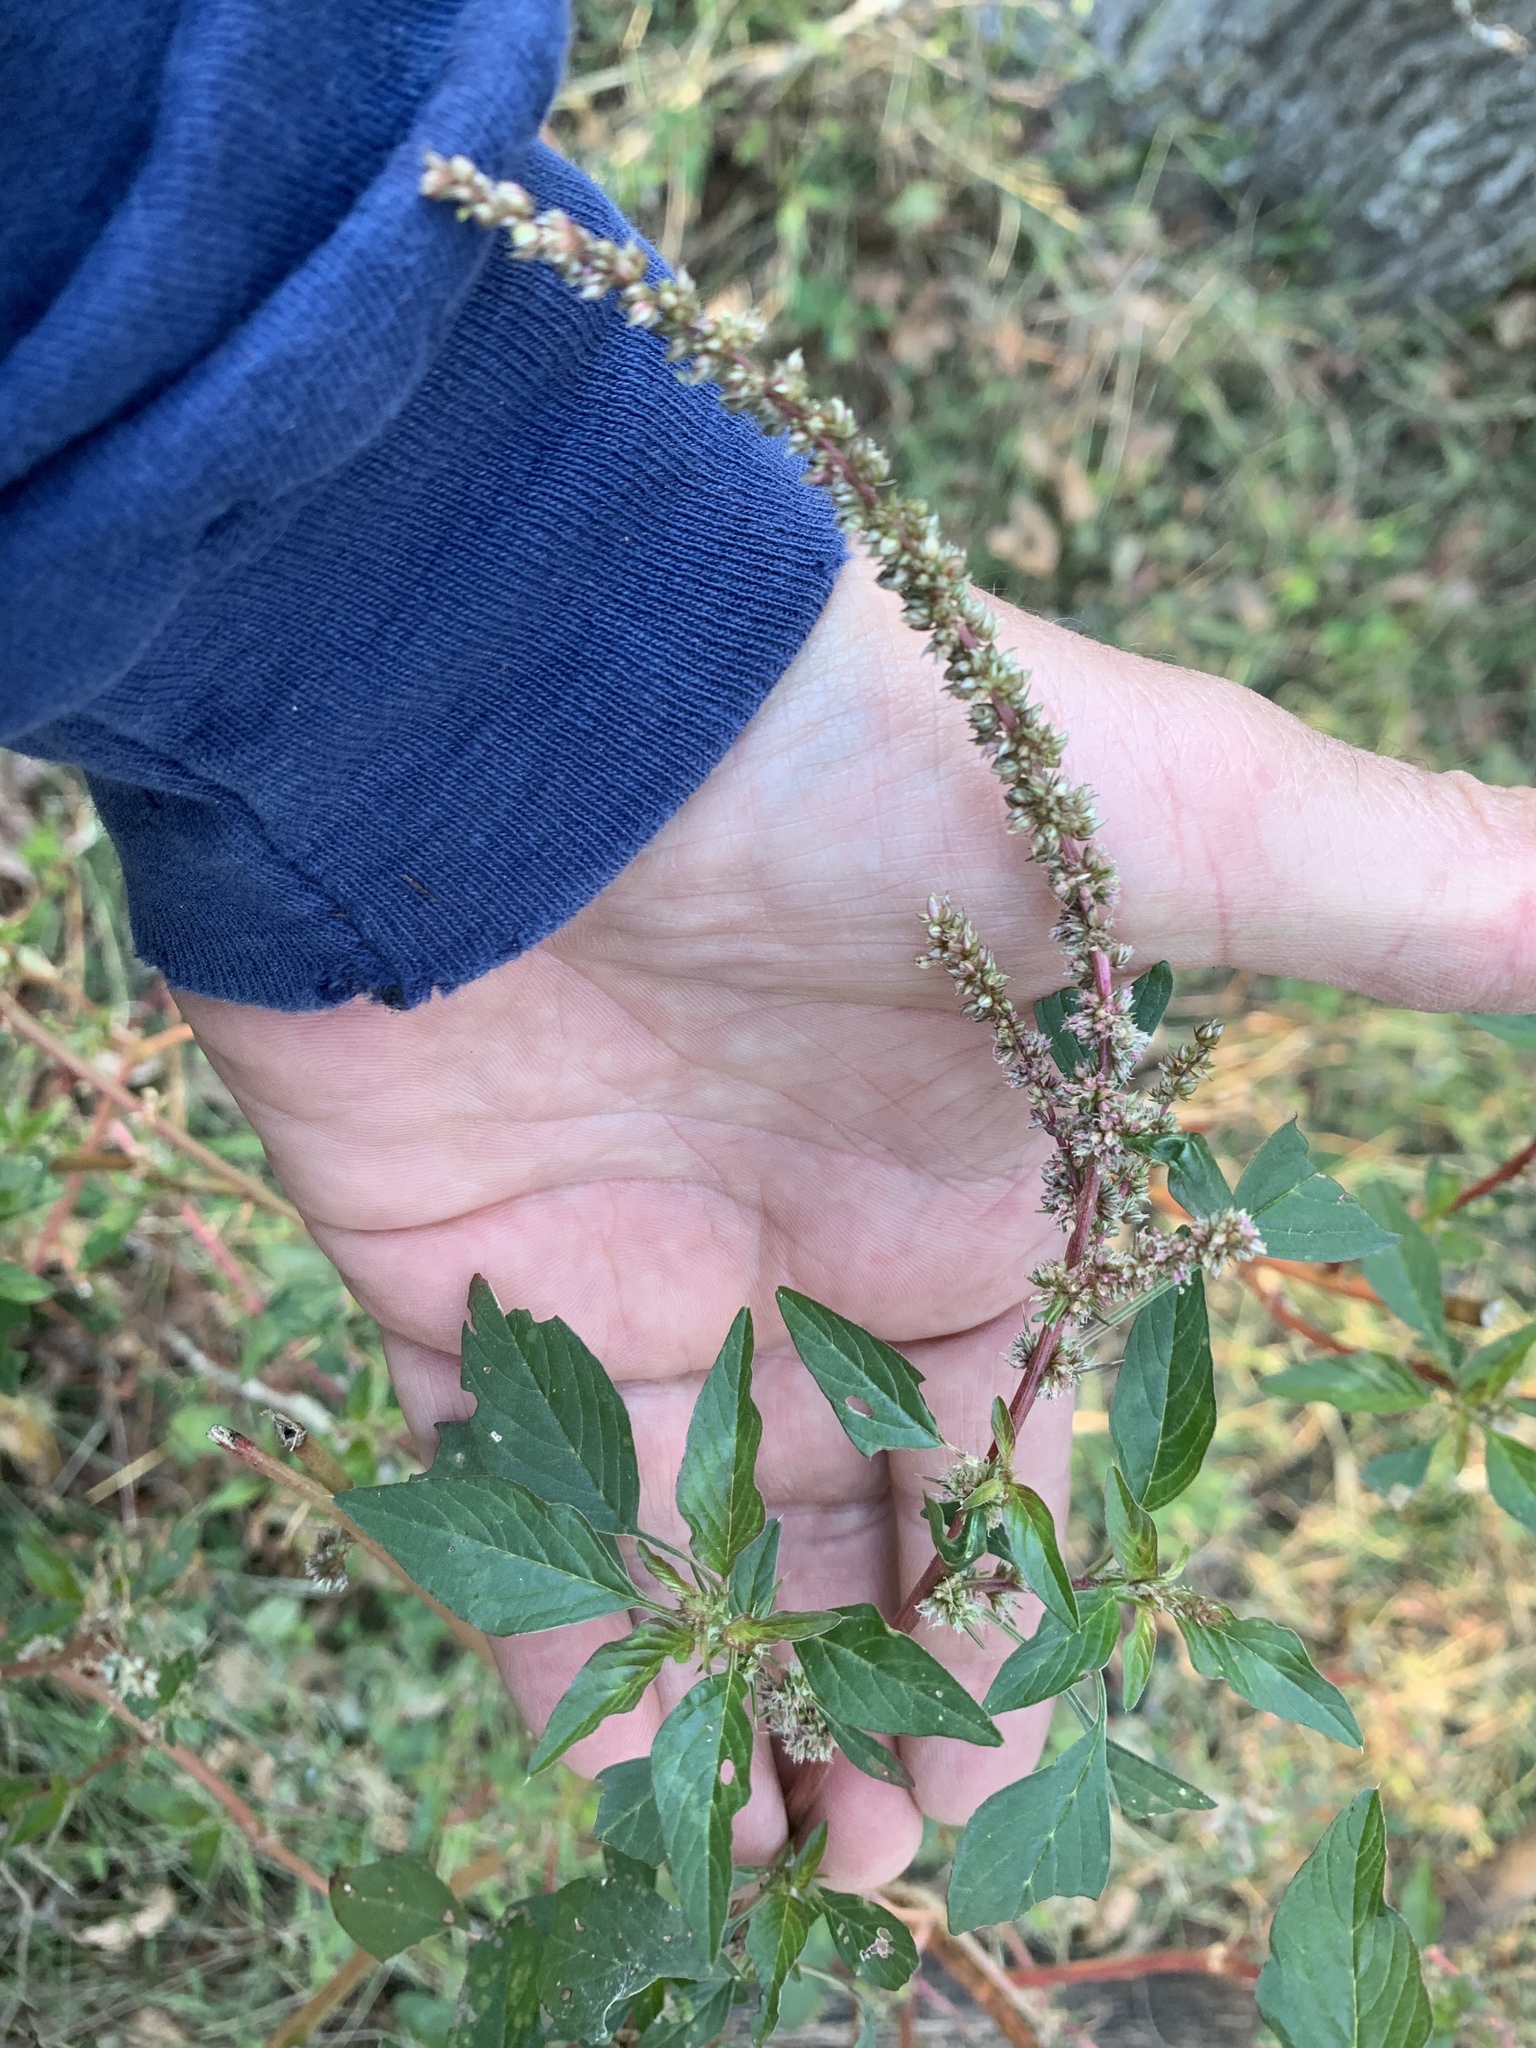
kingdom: Plantae
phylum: Tracheophyta
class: Magnoliopsida
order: Caryophyllales
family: Amaranthaceae
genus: Amaranthus
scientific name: Amaranthus palmeri
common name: Dioecious amaranth
